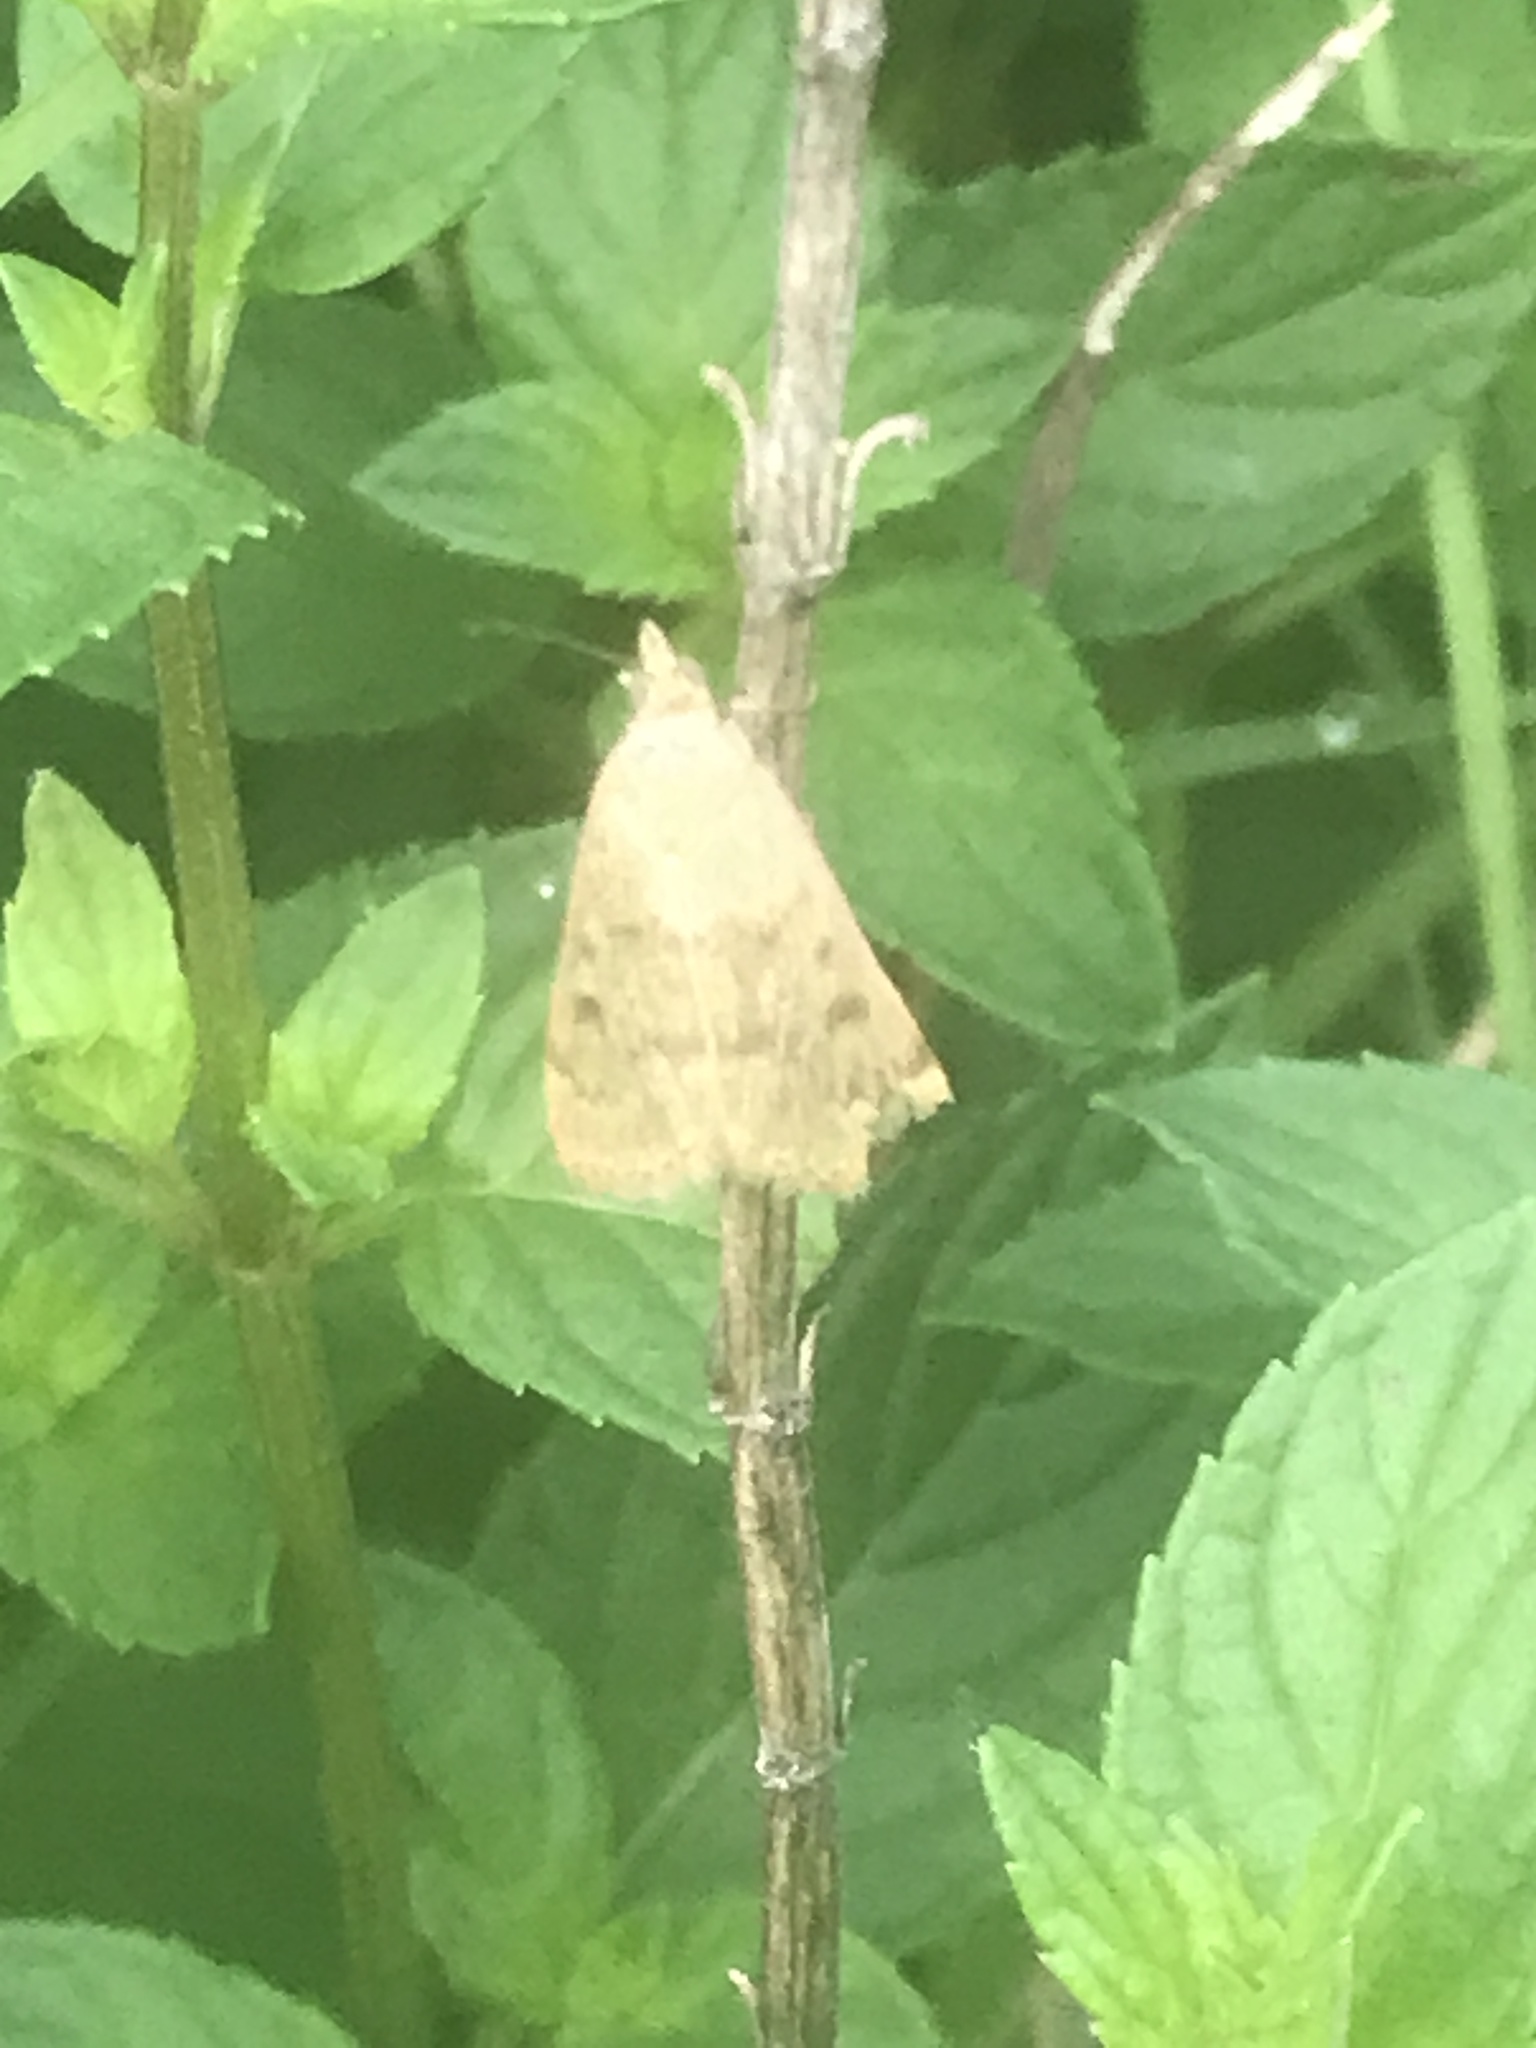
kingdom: Animalia
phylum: Arthropoda
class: Insecta
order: Lepidoptera
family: Crambidae
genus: Achyra
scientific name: Achyra rantalis
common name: Garden webworm
